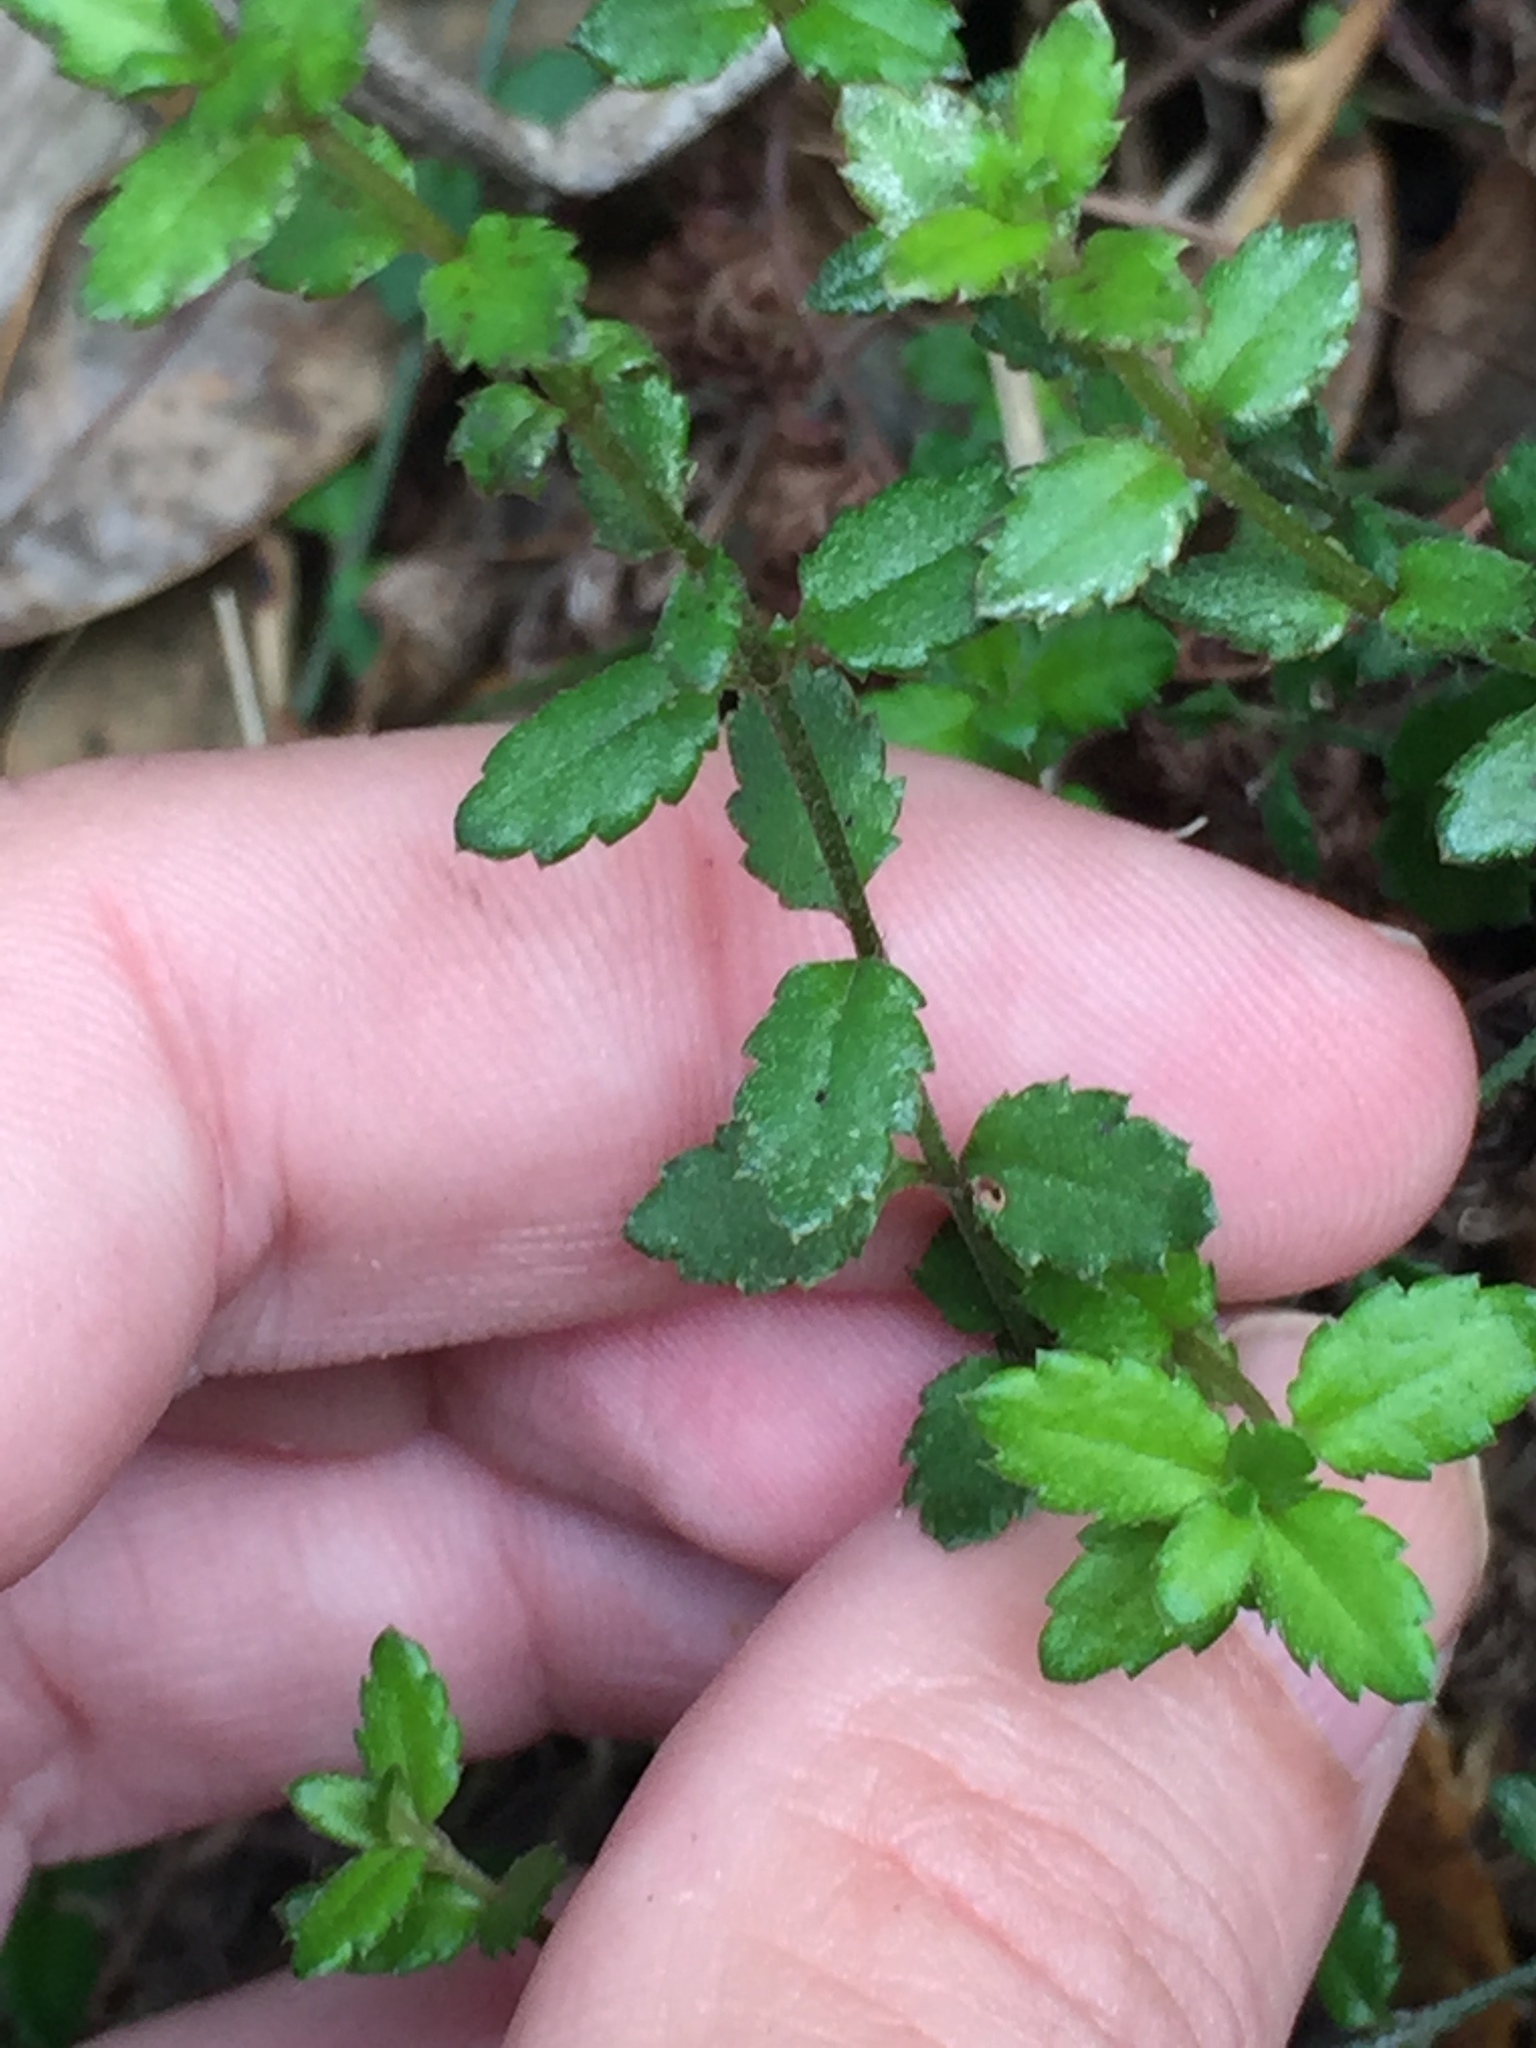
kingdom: Plantae
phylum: Tracheophyta
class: Magnoliopsida
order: Saxifragales
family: Haloragaceae
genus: Gonocarpus
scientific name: Gonocarpus incanus
